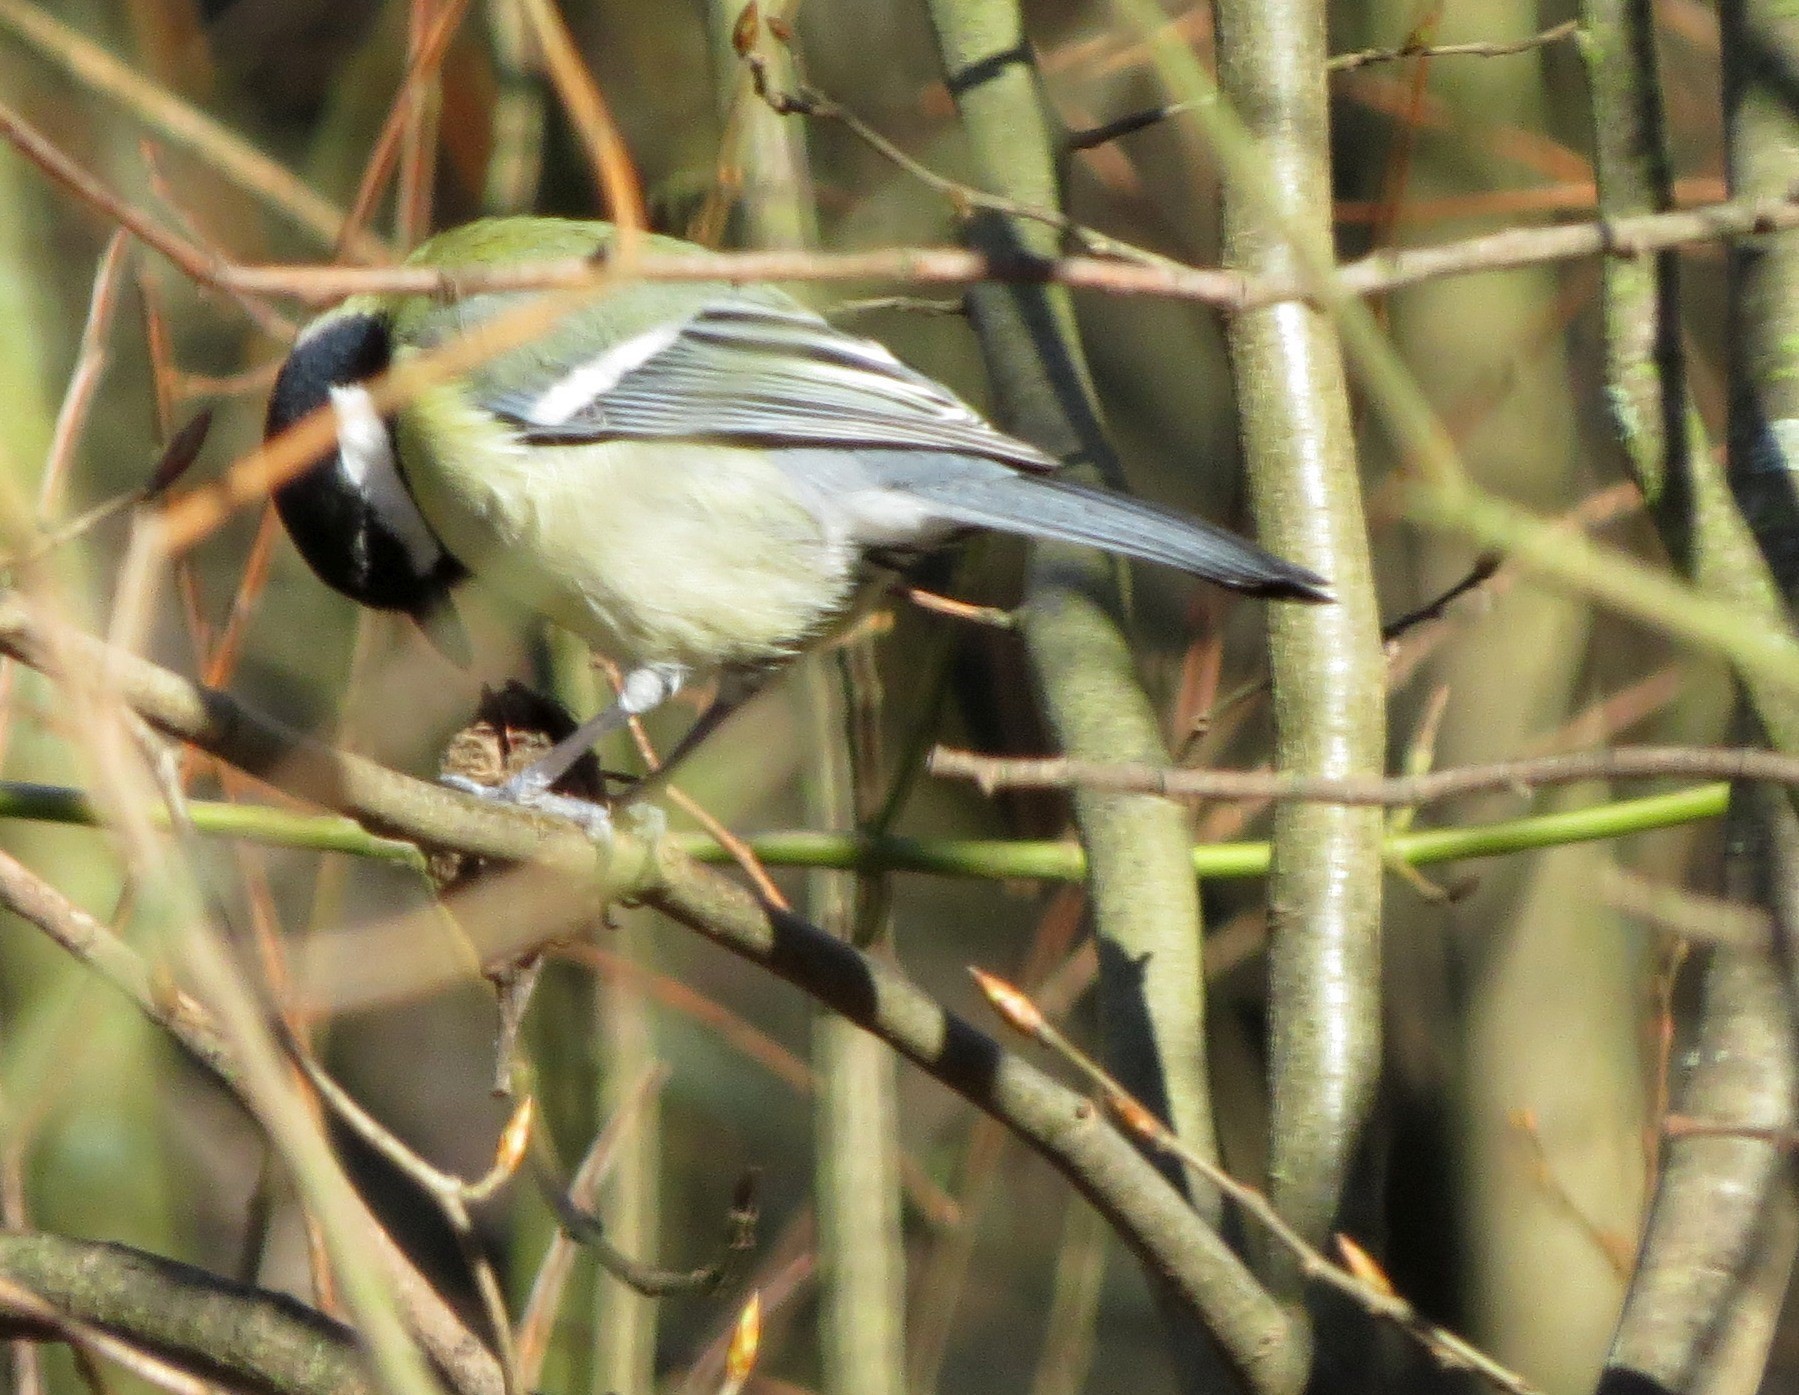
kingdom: Animalia
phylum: Chordata
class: Aves
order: Passeriformes
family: Paridae
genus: Parus
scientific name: Parus major
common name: Great tit
